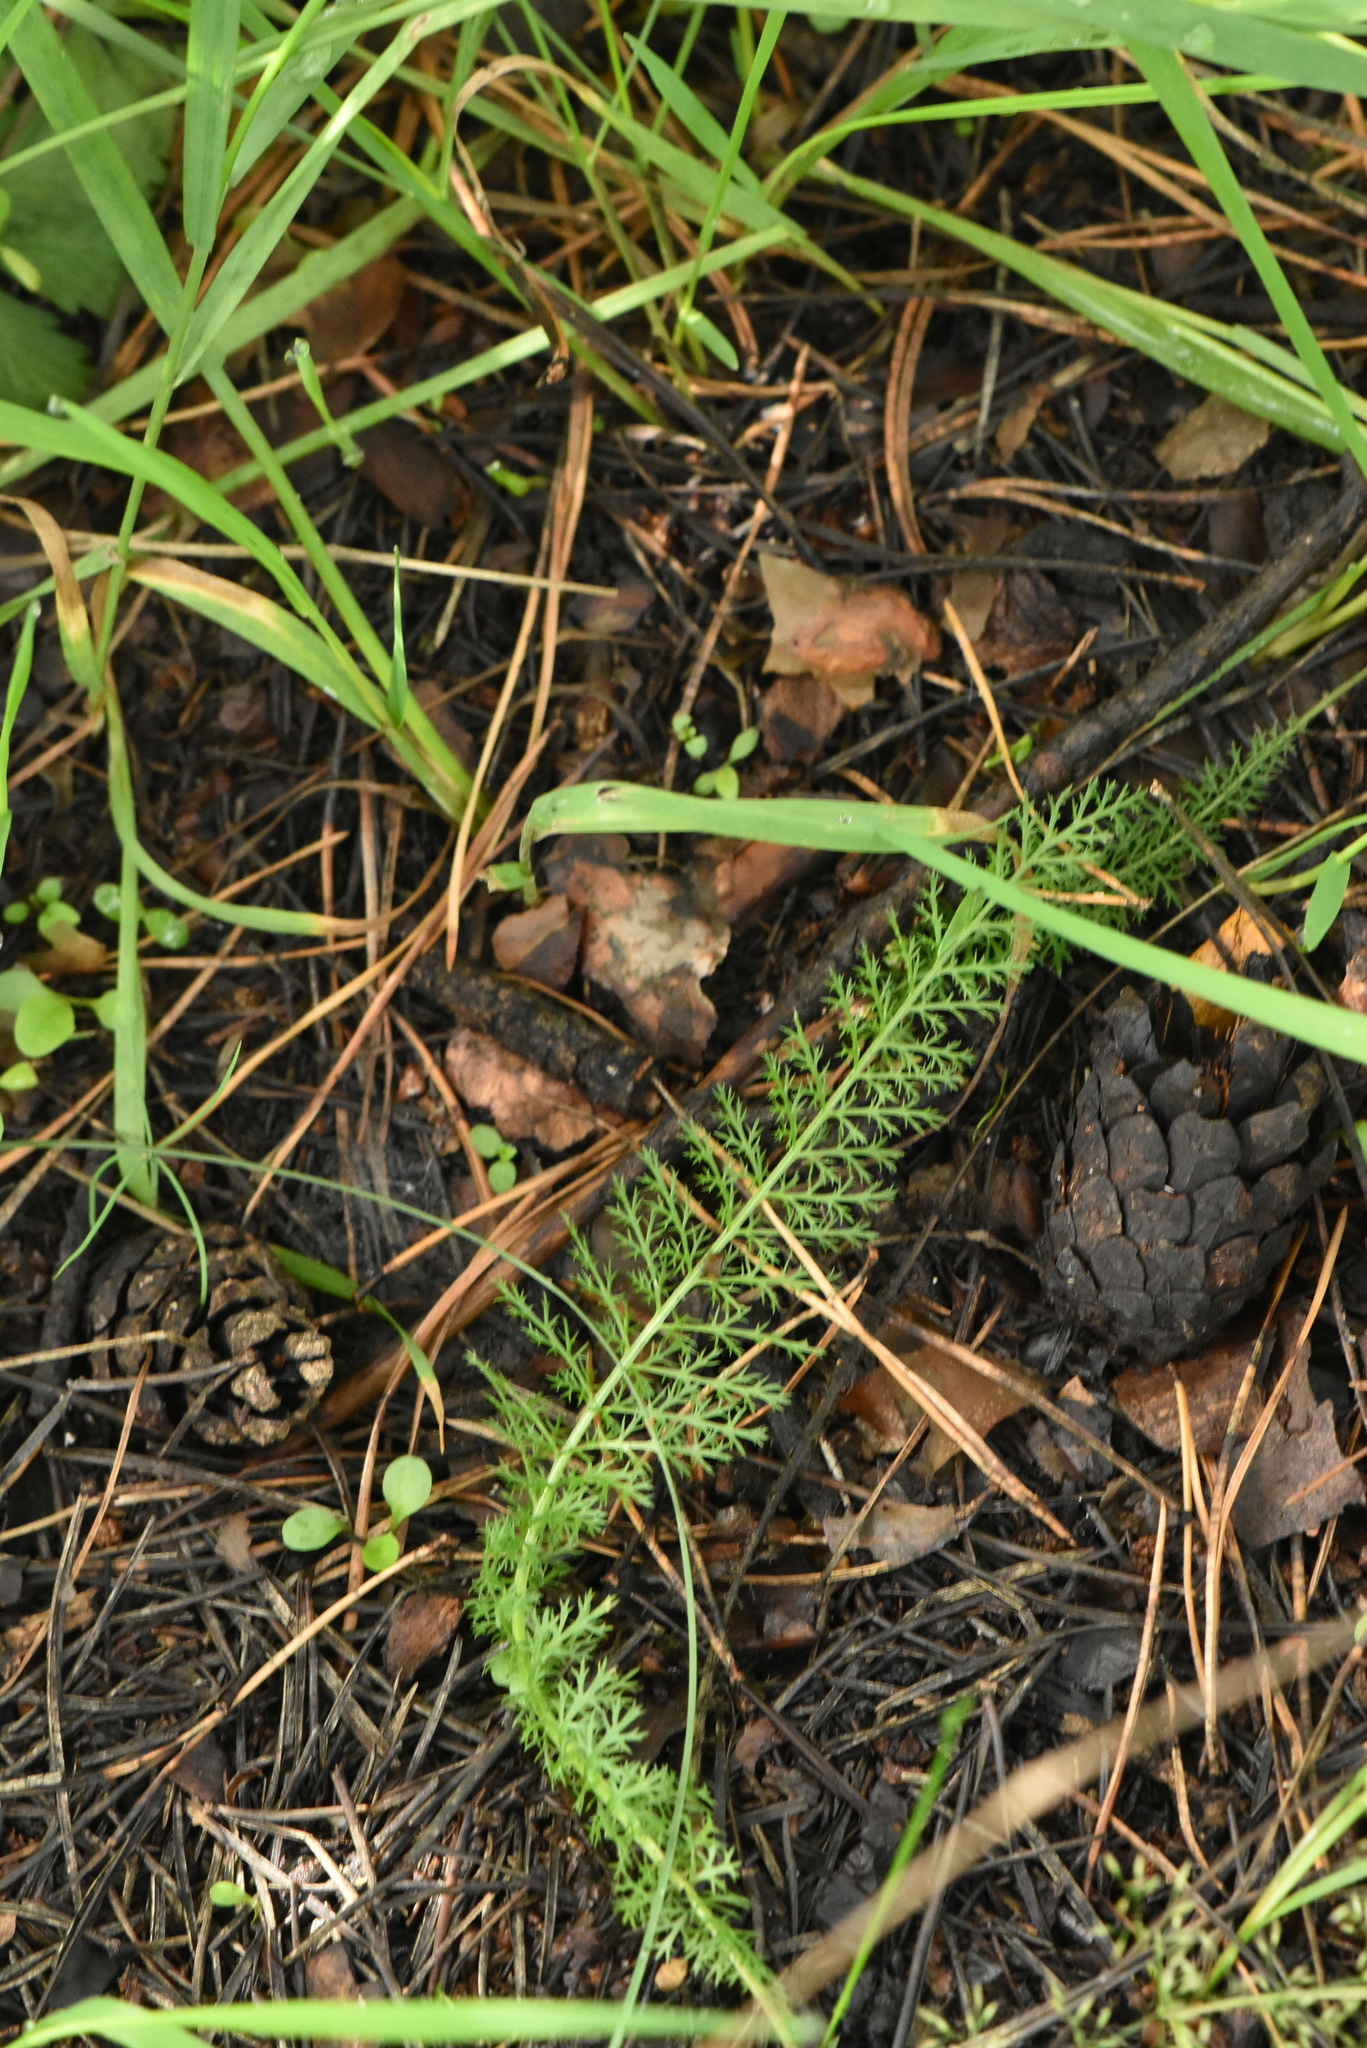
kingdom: Plantae
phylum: Tracheophyta
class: Magnoliopsida
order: Asterales
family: Asteraceae
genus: Achillea
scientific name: Achillea millefolium
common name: Yarrow
